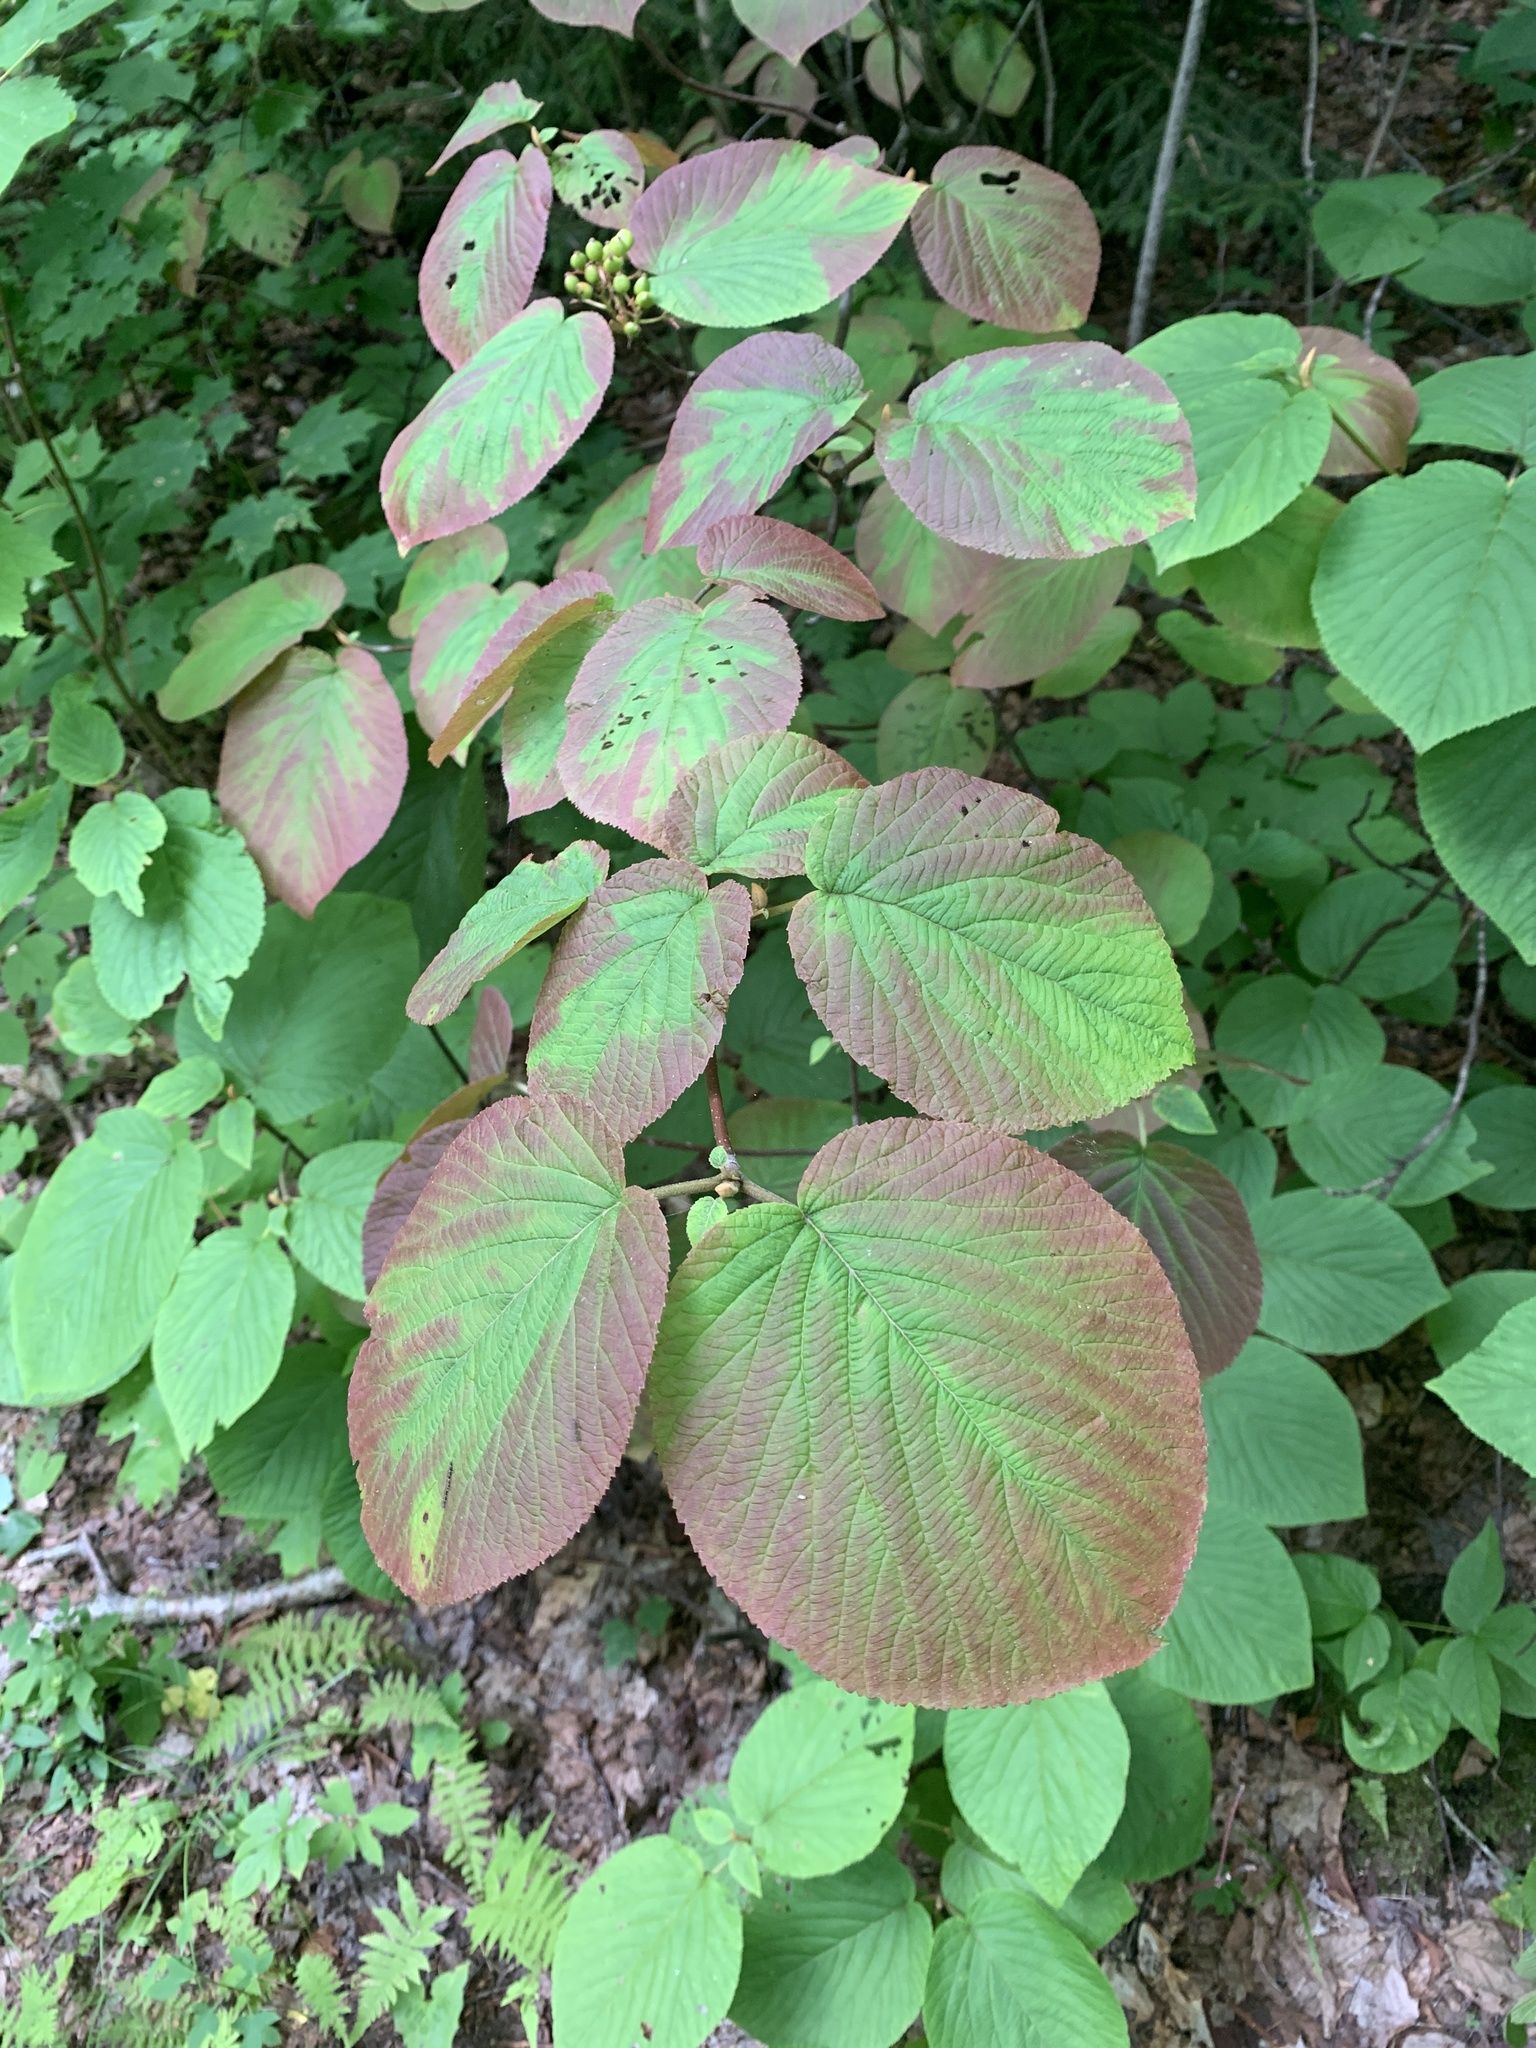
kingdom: Plantae
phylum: Tracheophyta
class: Magnoliopsida
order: Dipsacales
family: Viburnaceae
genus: Viburnum
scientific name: Viburnum lantanoides
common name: Hobblebush
